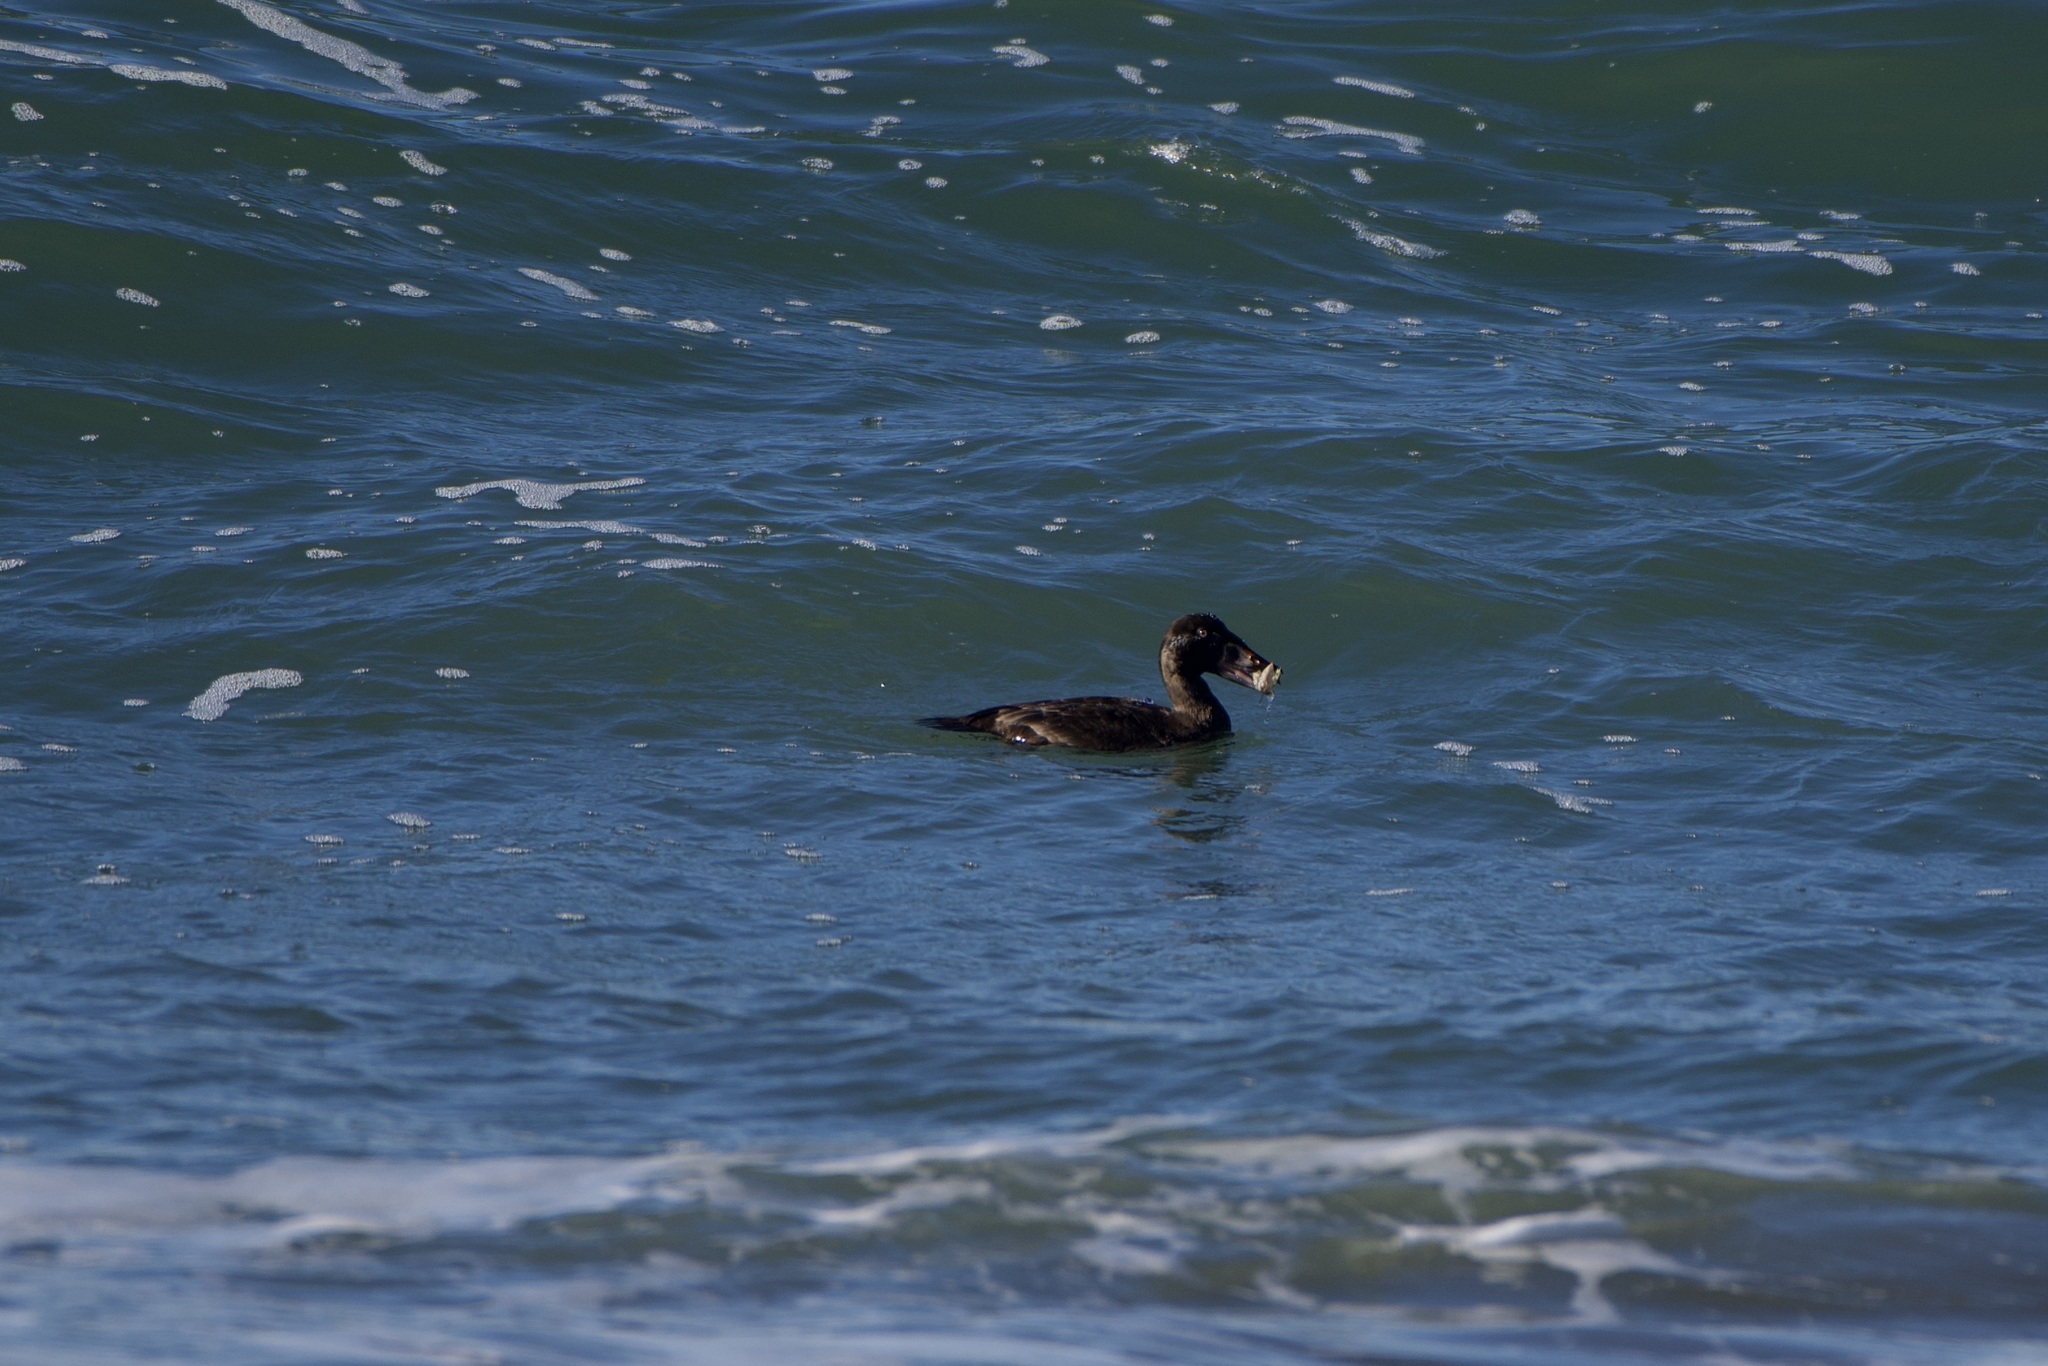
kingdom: Animalia
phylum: Chordata
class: Aves
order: Anseriformes
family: Anatidae
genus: Melanitta
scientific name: Melanitta perspicillata
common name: Surf scoter
